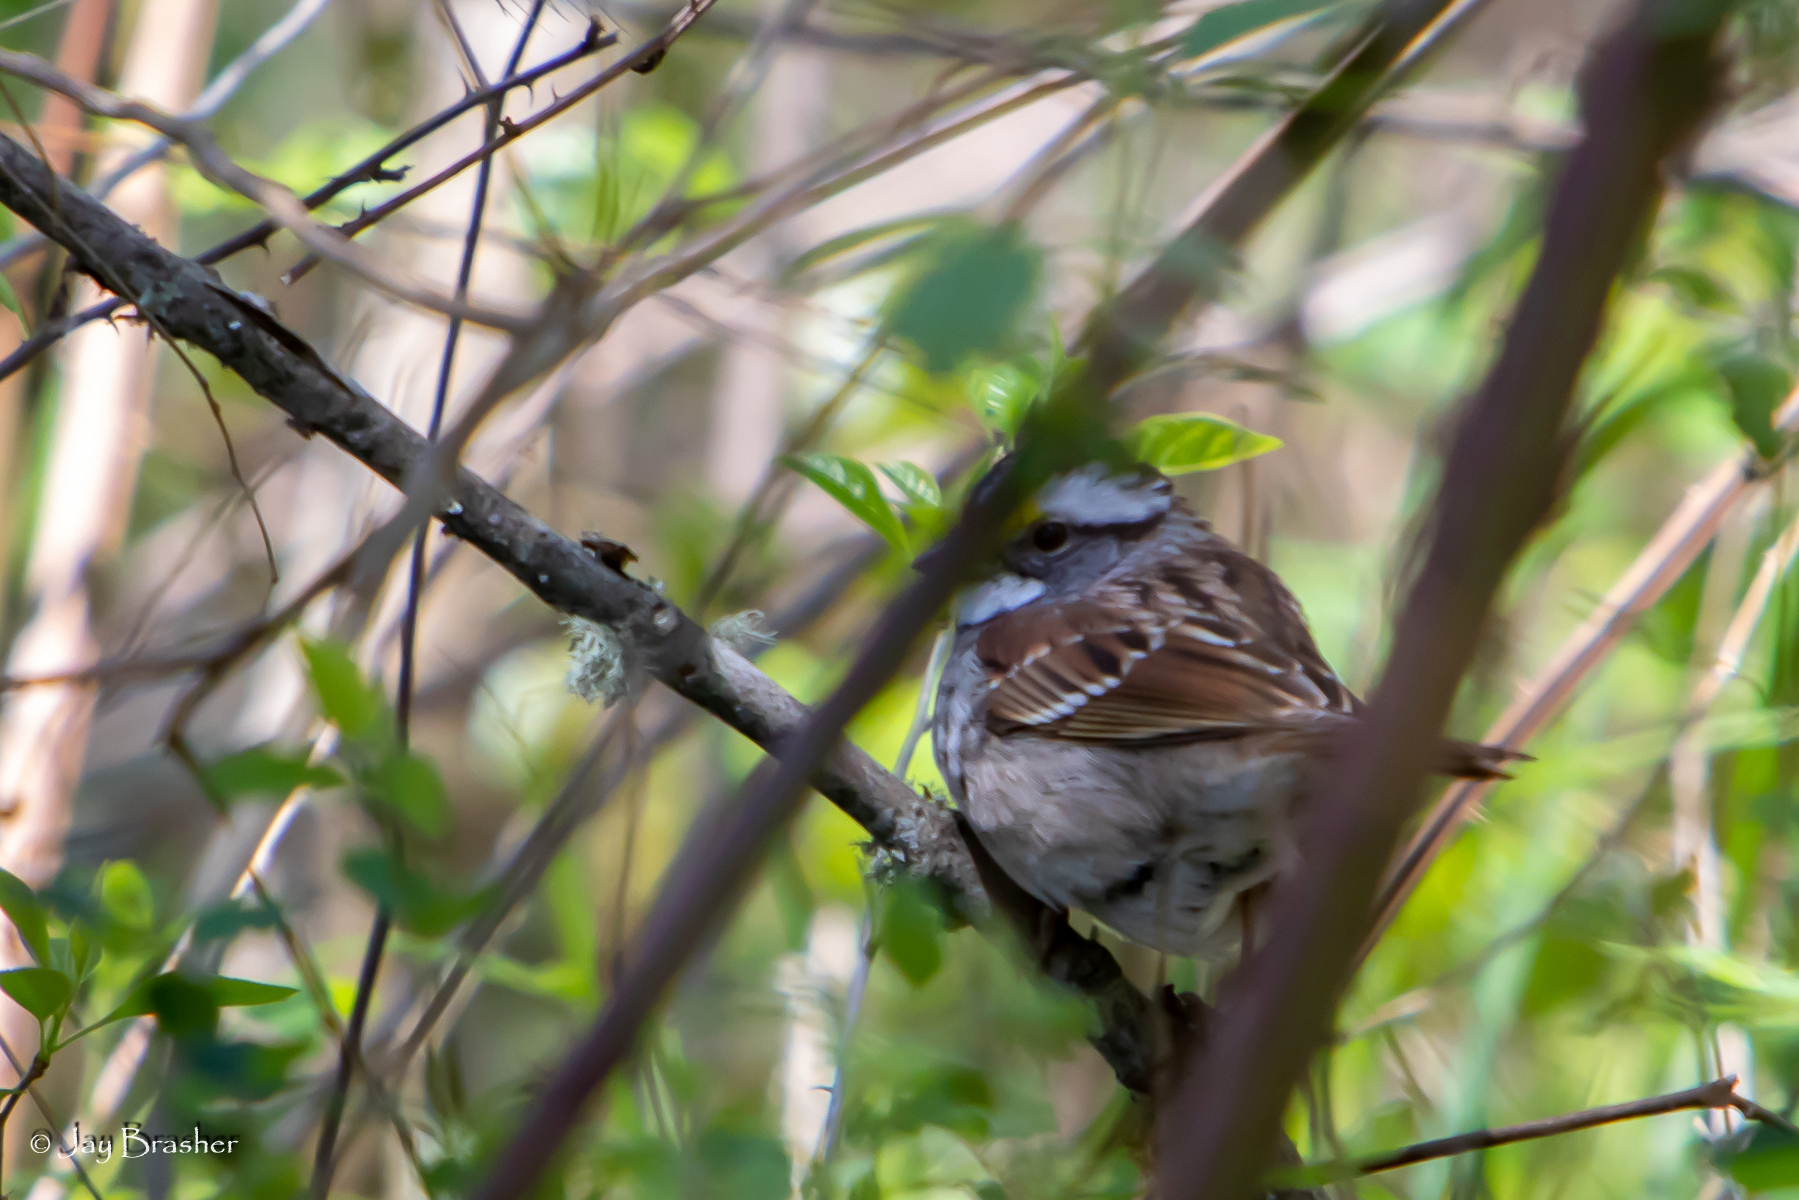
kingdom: Animalia
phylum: Chordata
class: Aves
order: Passeriformes
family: Passerellidae
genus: Zonotrichia
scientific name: Zonotrichia albicollis
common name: White-throated sparrow
